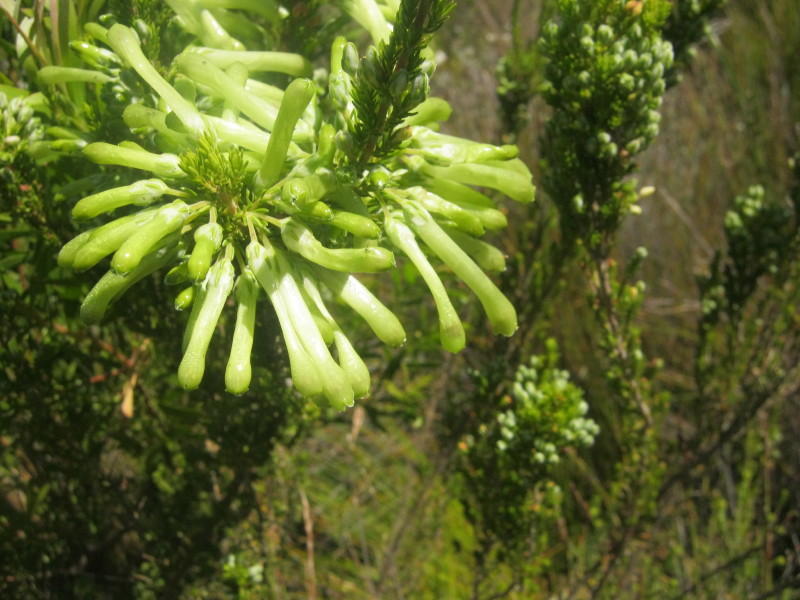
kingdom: Plantae
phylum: Tracheophyta
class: Magnoliopsida
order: Ericales
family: Ericaceae
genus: Erica
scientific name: Erica discolor
